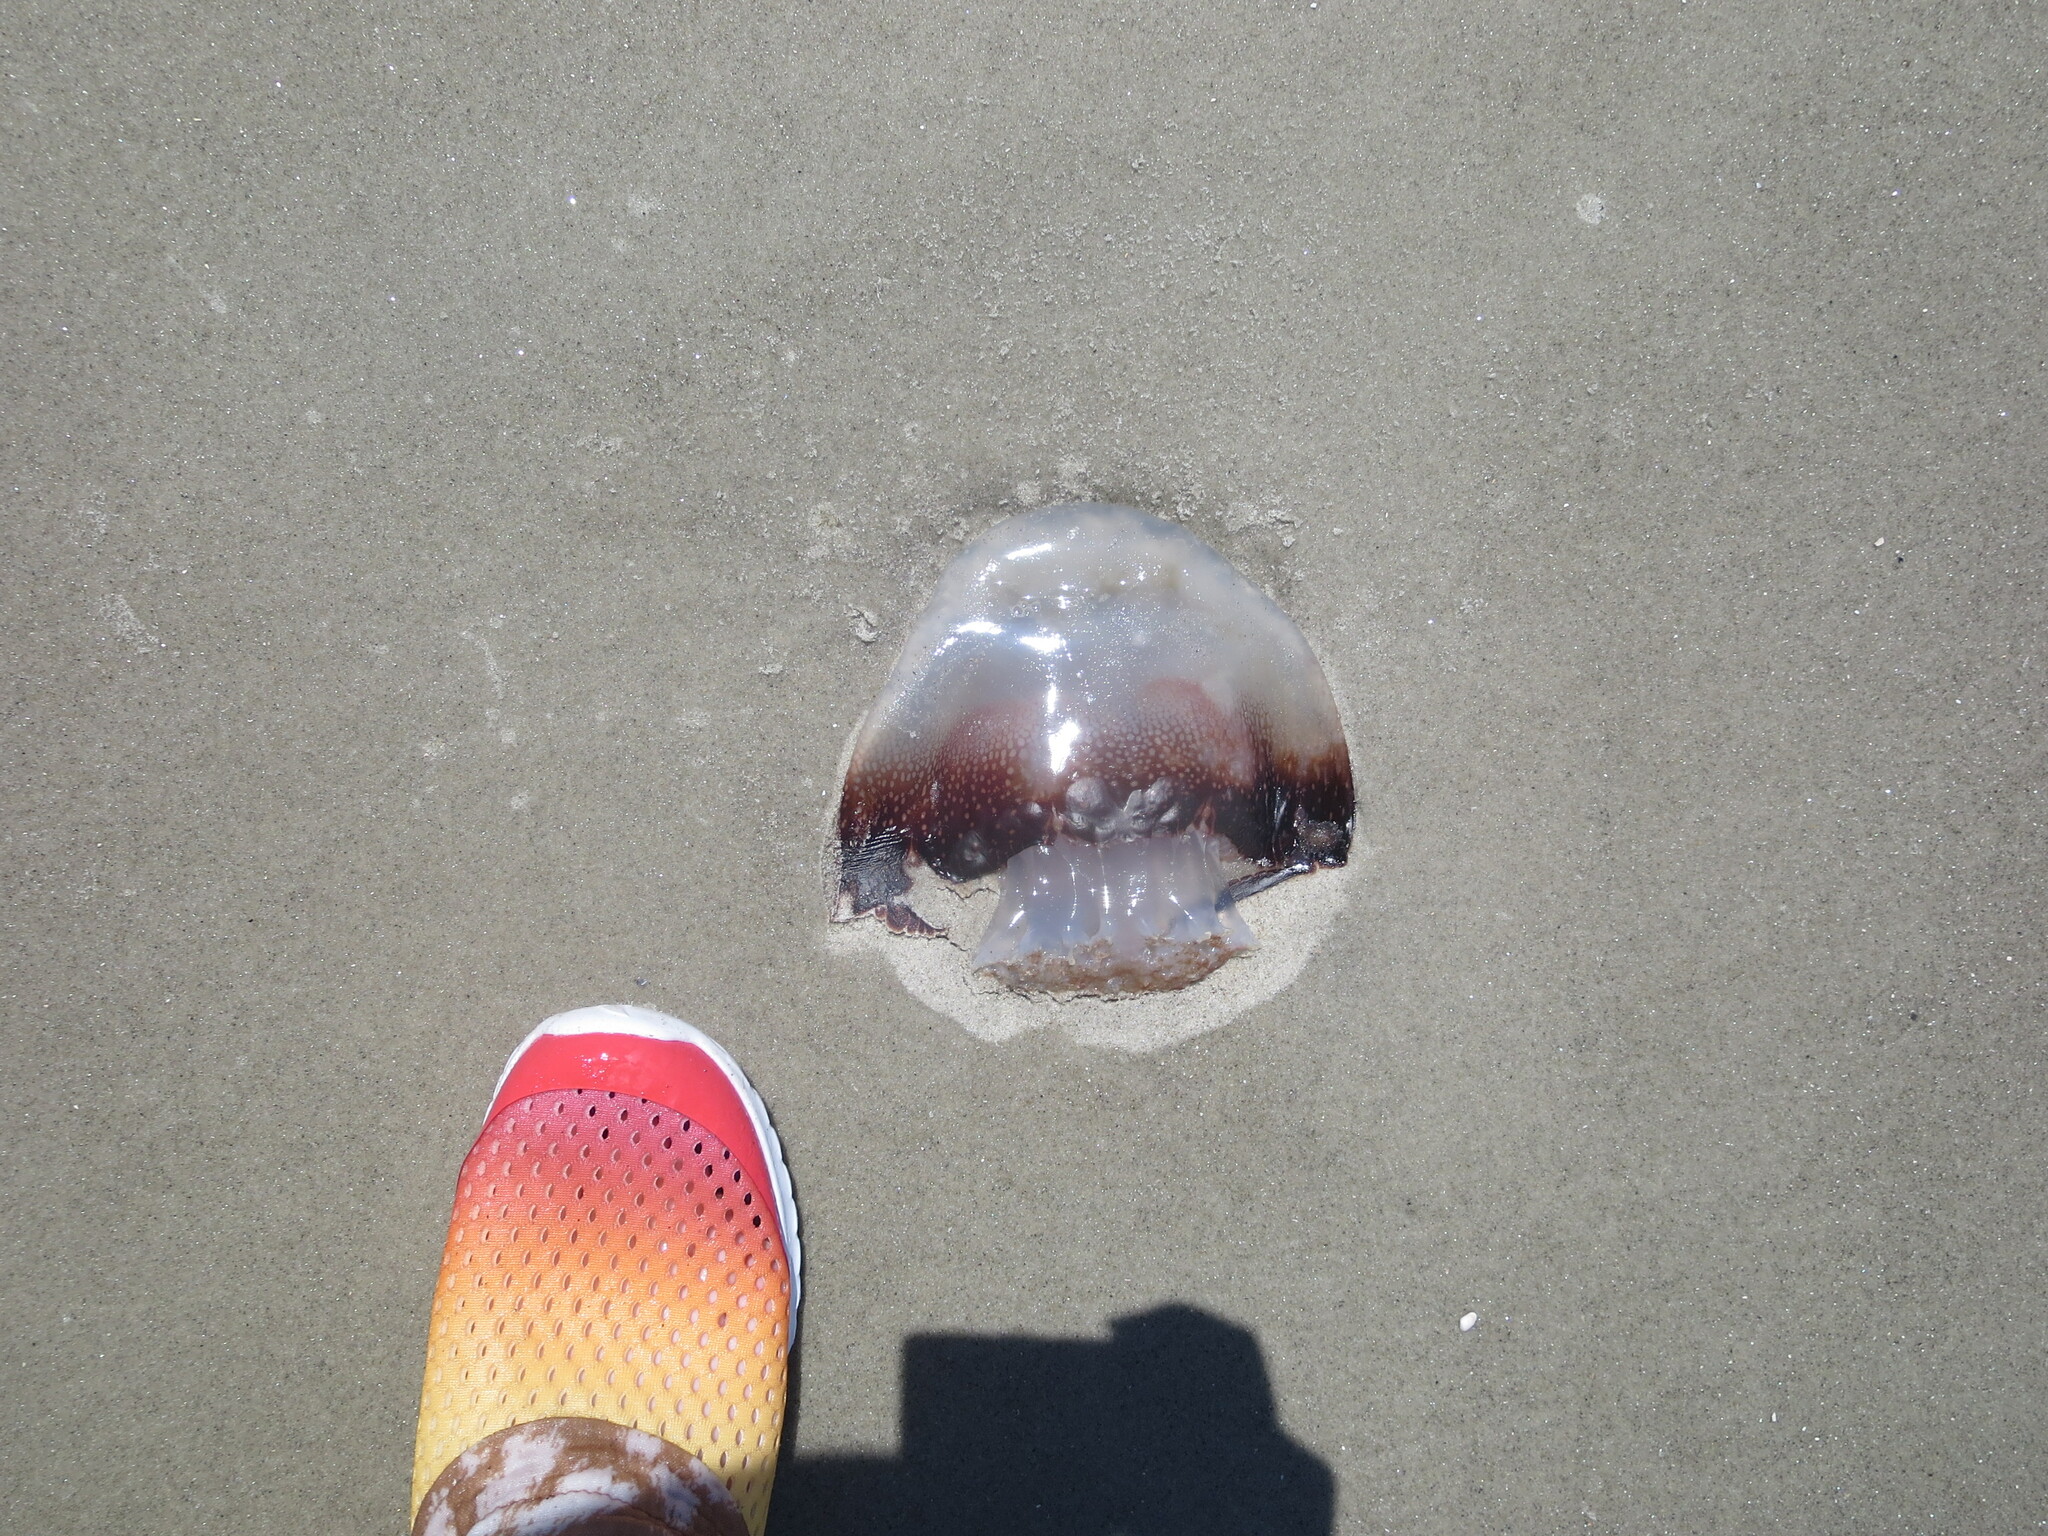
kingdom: Animalia
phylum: Cnidaria
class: Scyphozoa
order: Rhizostomeae
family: Stomolophidae
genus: Stomolophus
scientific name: Stomolophus meleagris
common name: Cabbagehead
